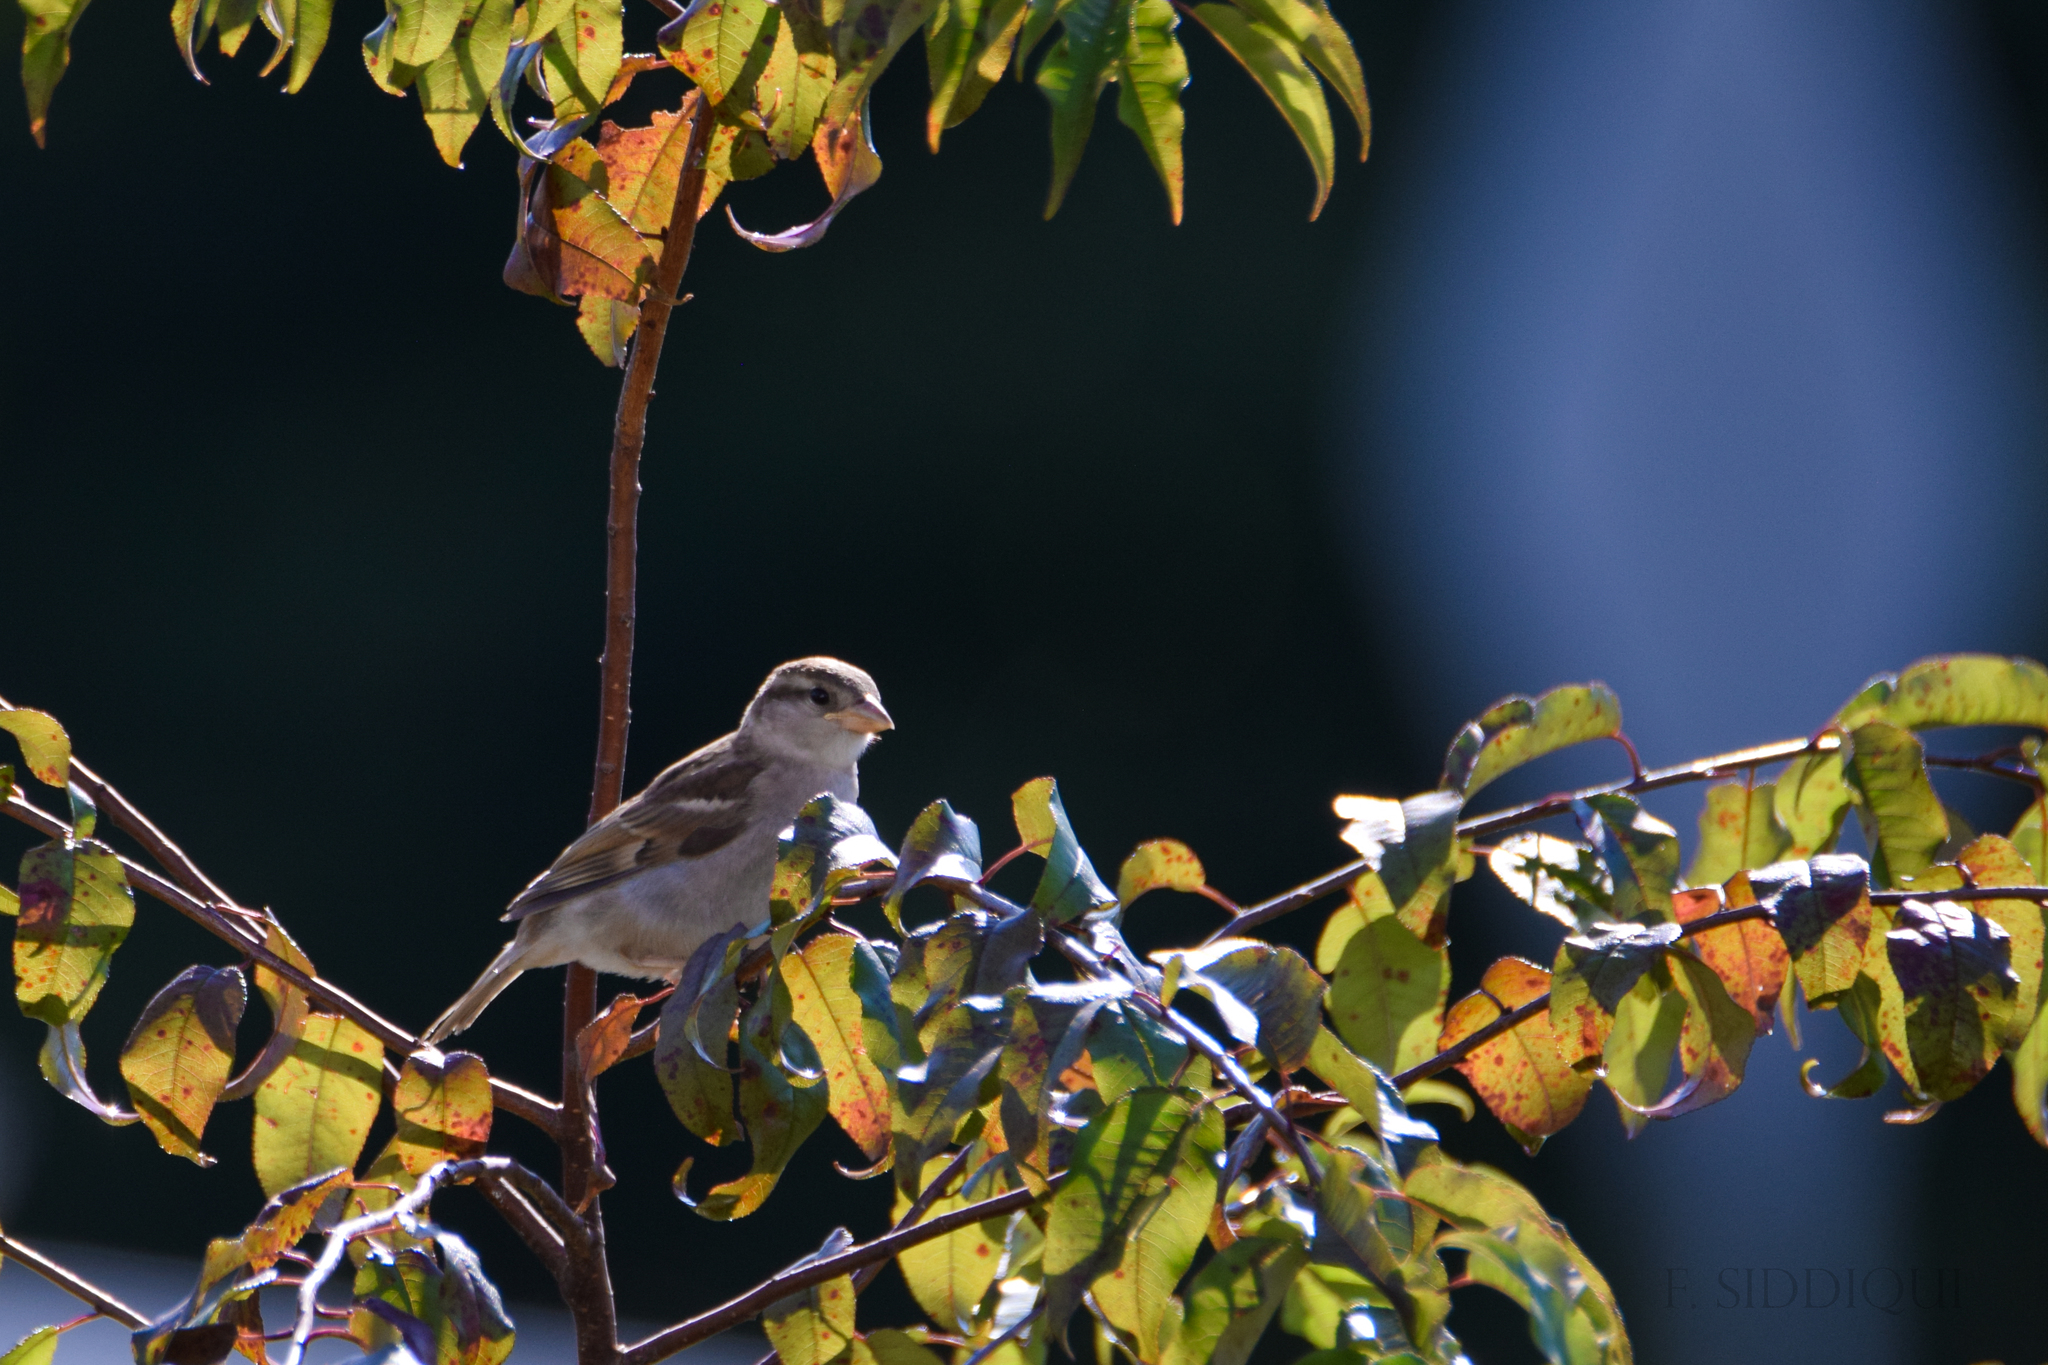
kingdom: Animalia
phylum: Chordata
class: Aves
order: Passeriformes
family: Passeridae
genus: Passer
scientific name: Passer domesticus
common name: House sparrow
